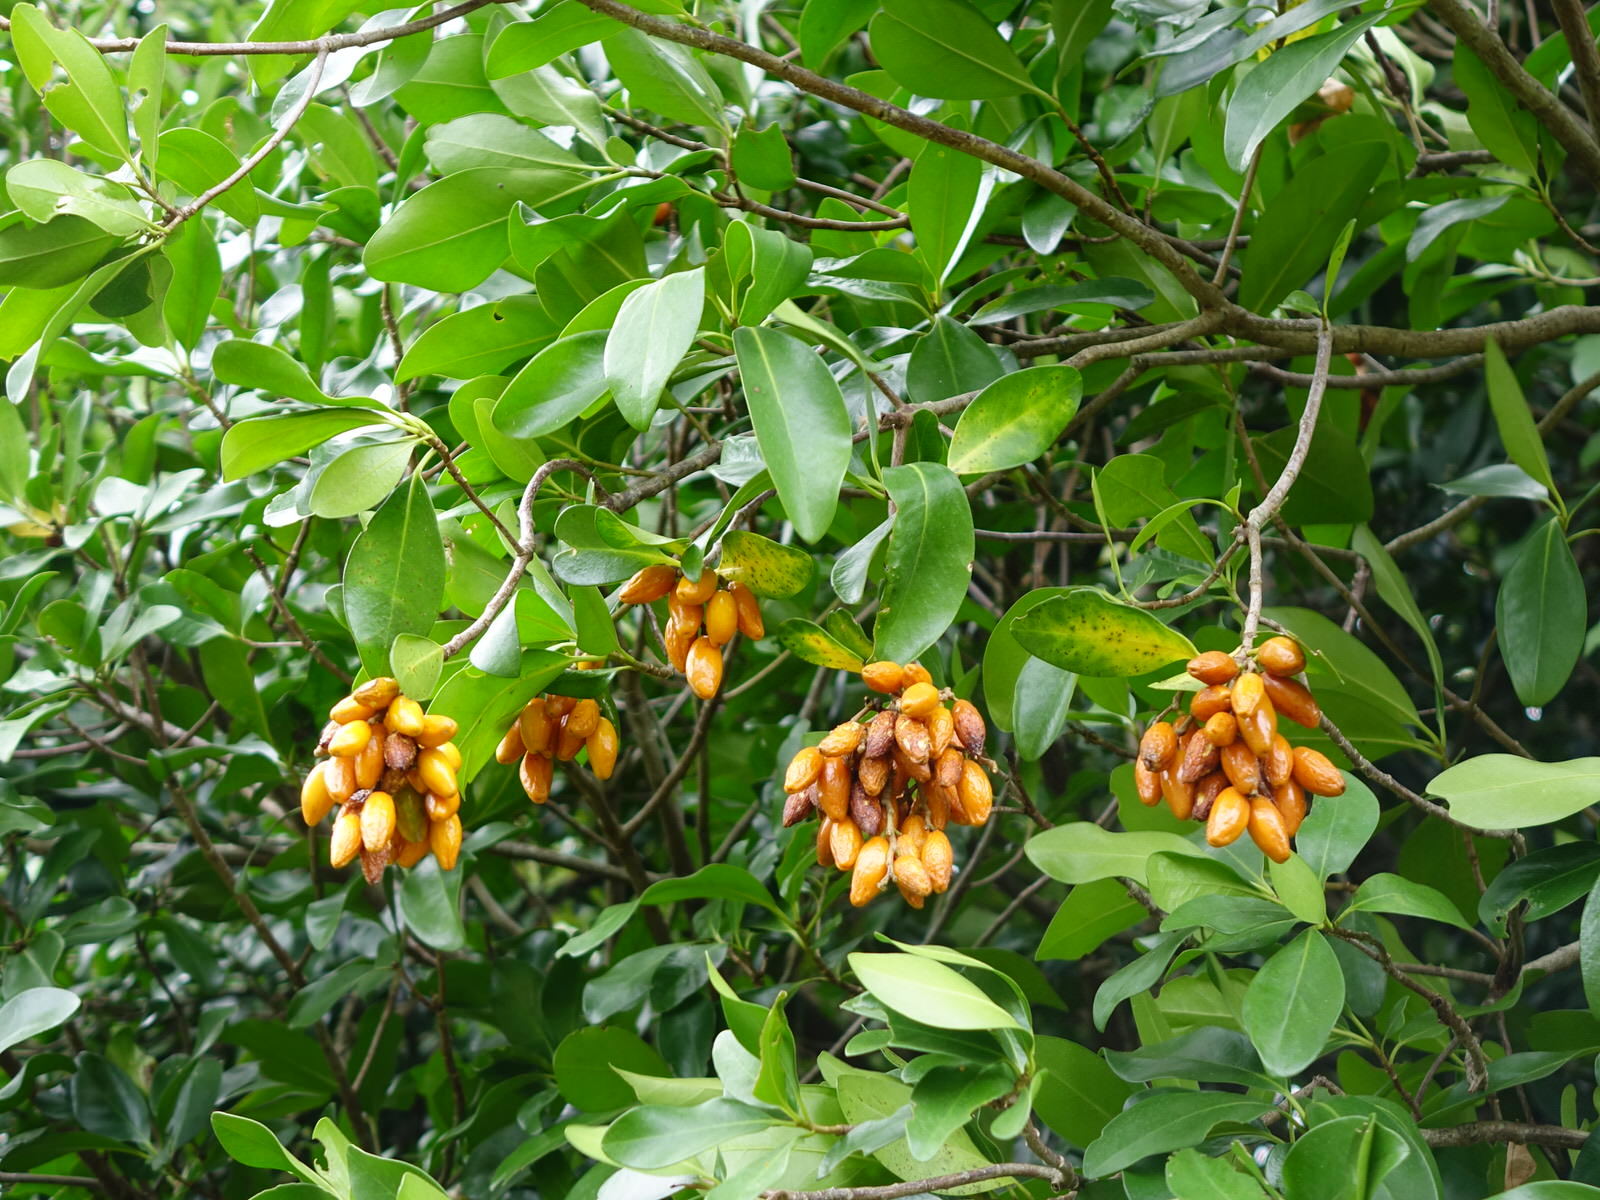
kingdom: Plantae
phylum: Tracheophyta
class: Magnoliopsida
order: Cucurbitales
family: Corynocarpaceae
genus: Corynocarpus
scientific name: Corynocarpus laevigatus
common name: New zealand laurel
